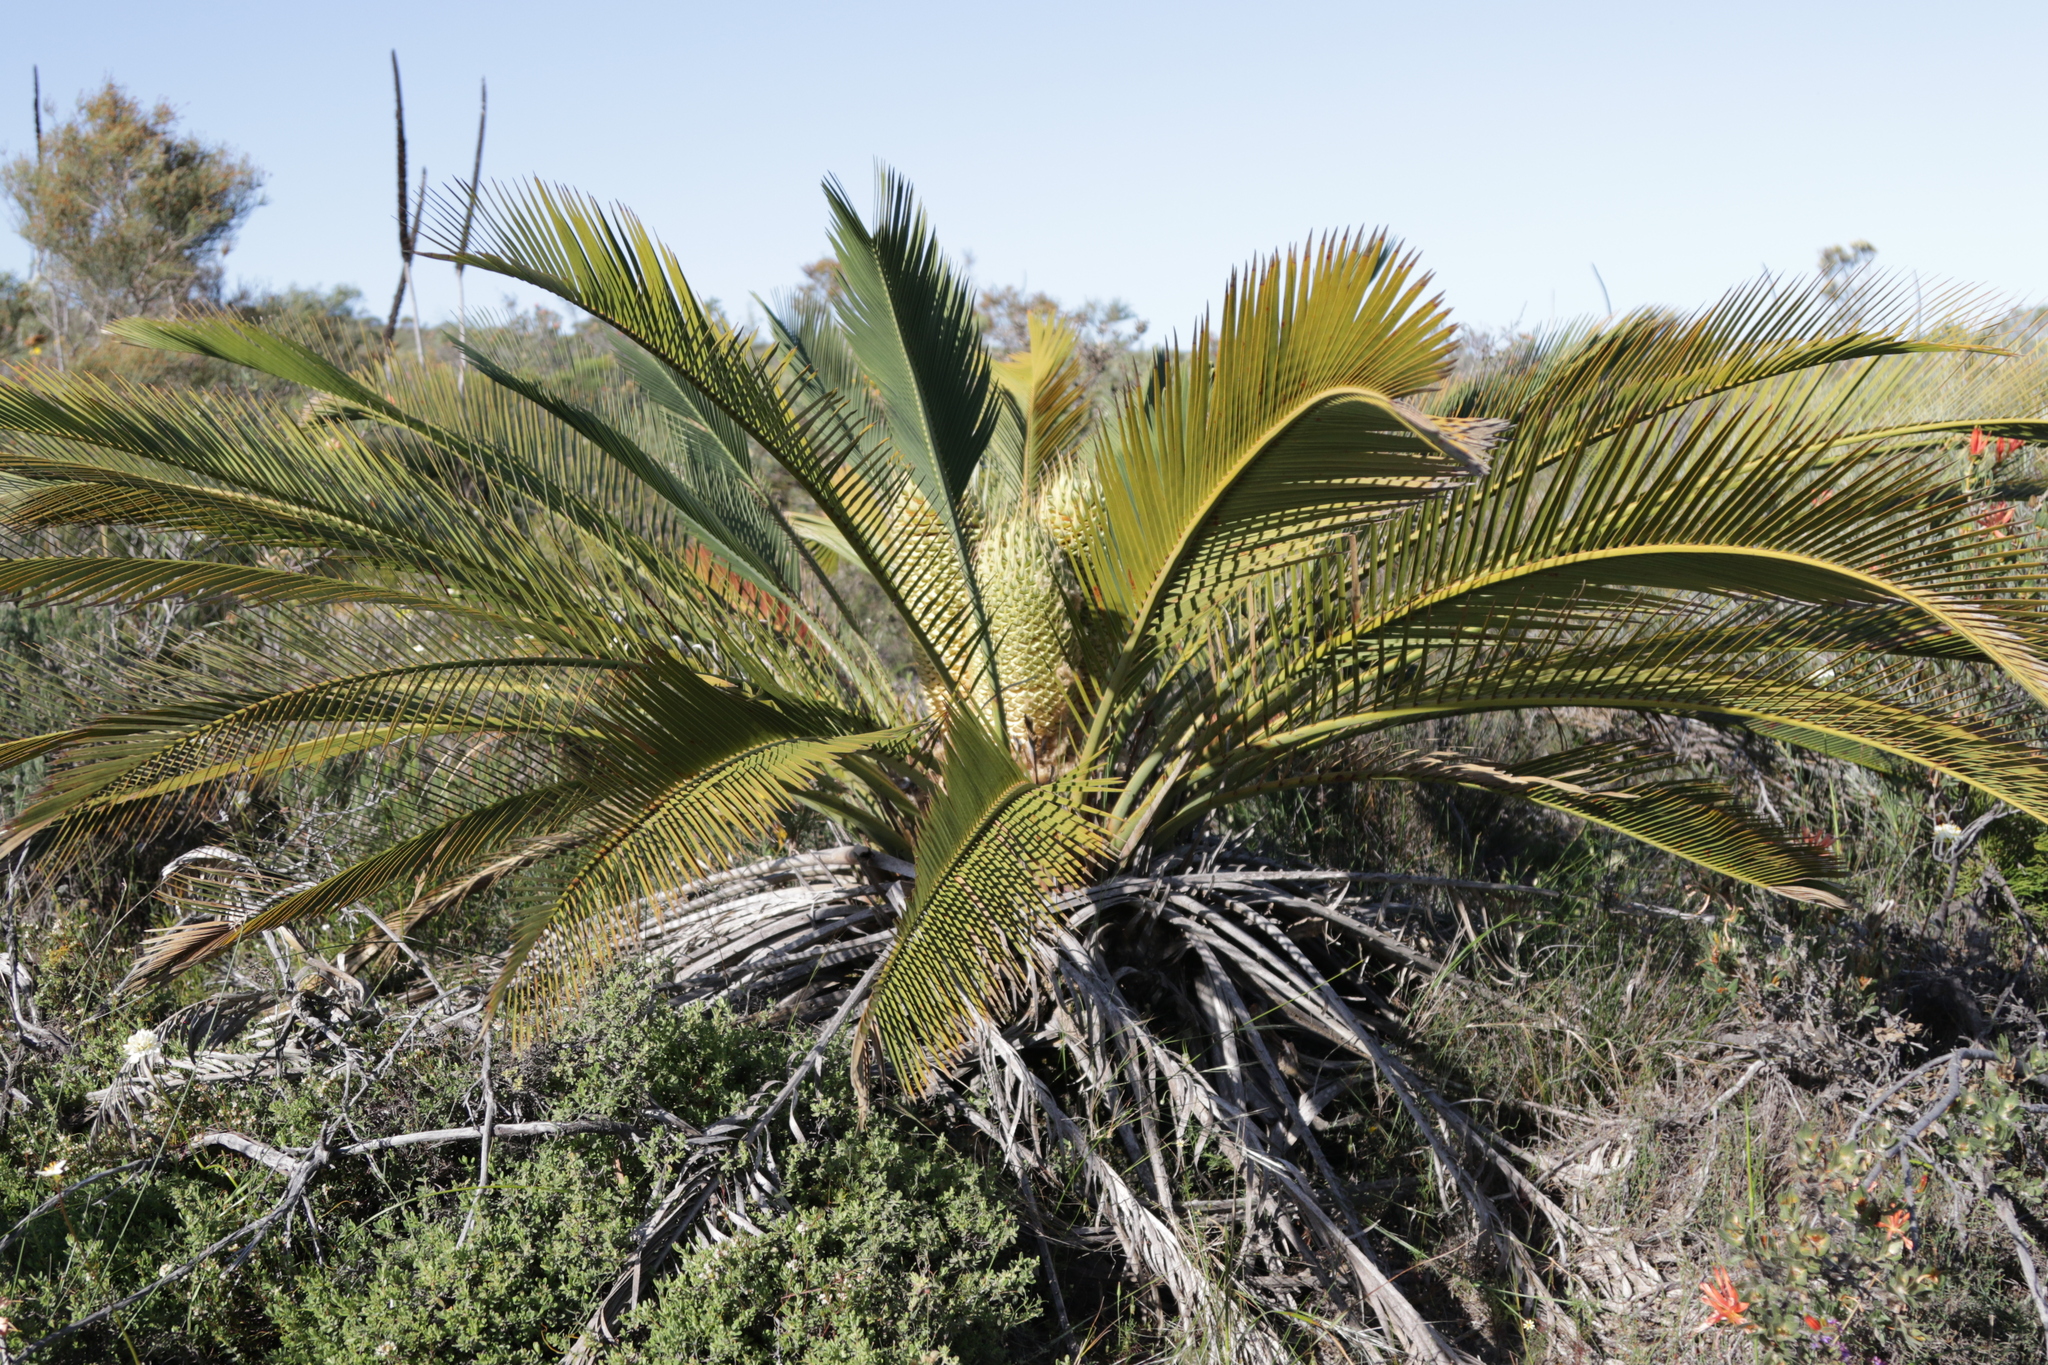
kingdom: Plantae
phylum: Tracheophyta
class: Cycadopsida
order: Cycadales
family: Zamiaceae
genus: Macrozamia
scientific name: Macrozamia fraseri
